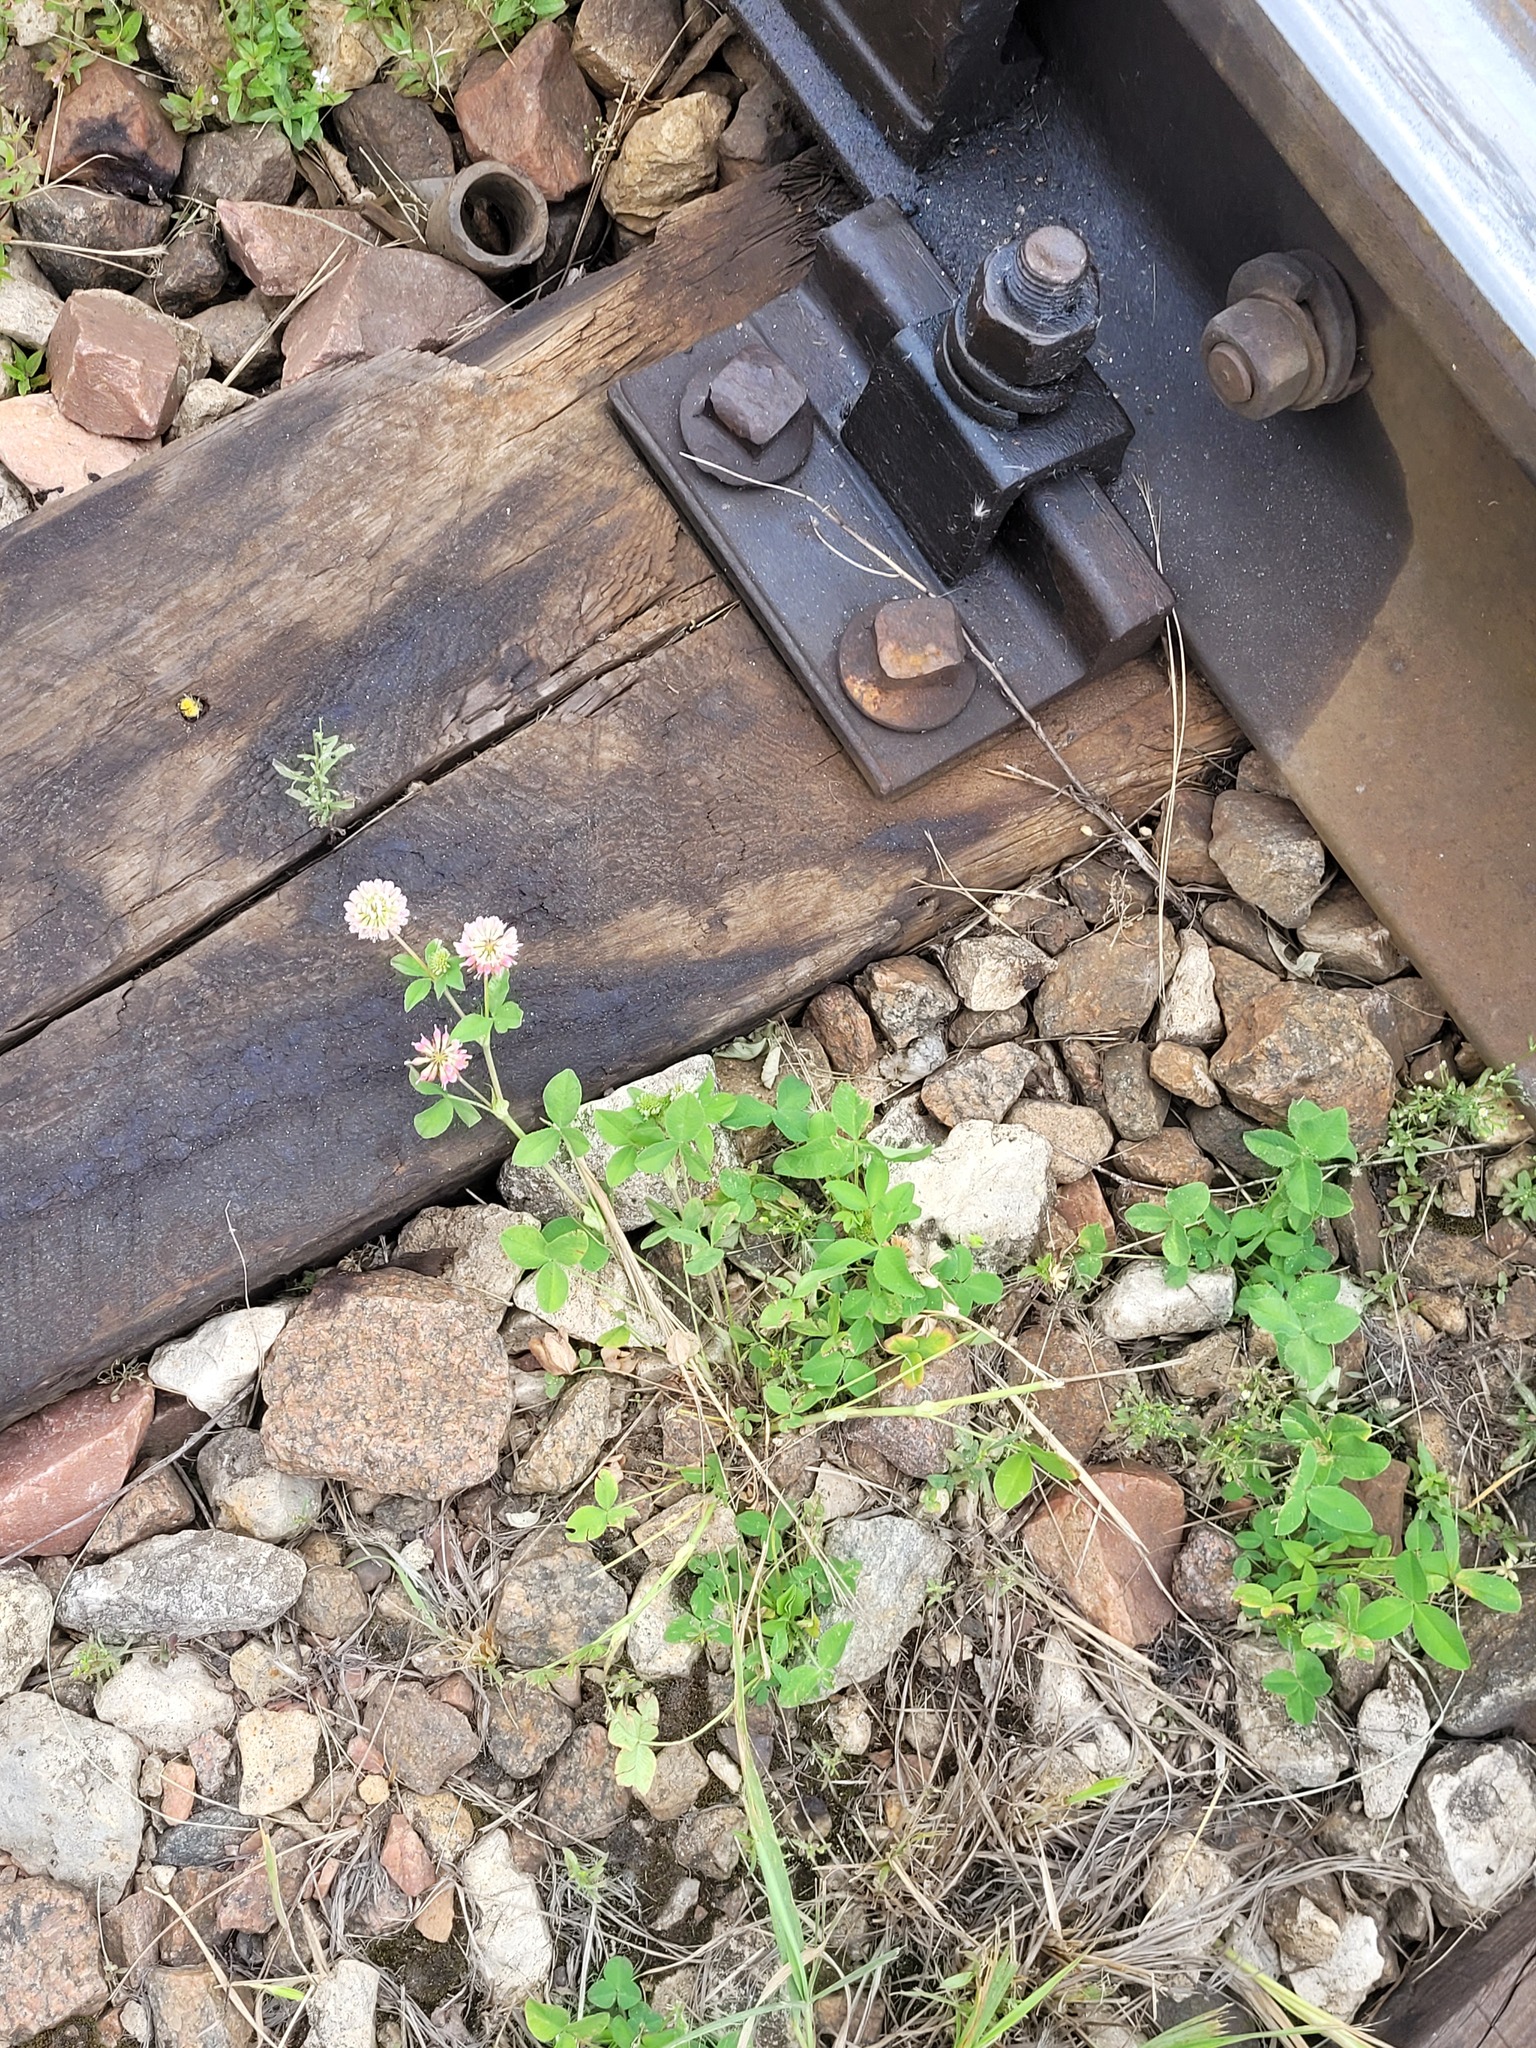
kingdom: Plantae
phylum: Tracheophyta
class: Magnoliopsida
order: Fabales
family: Fabaceae
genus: Trifolium
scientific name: Trifolium hybridum
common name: Alsike clover
